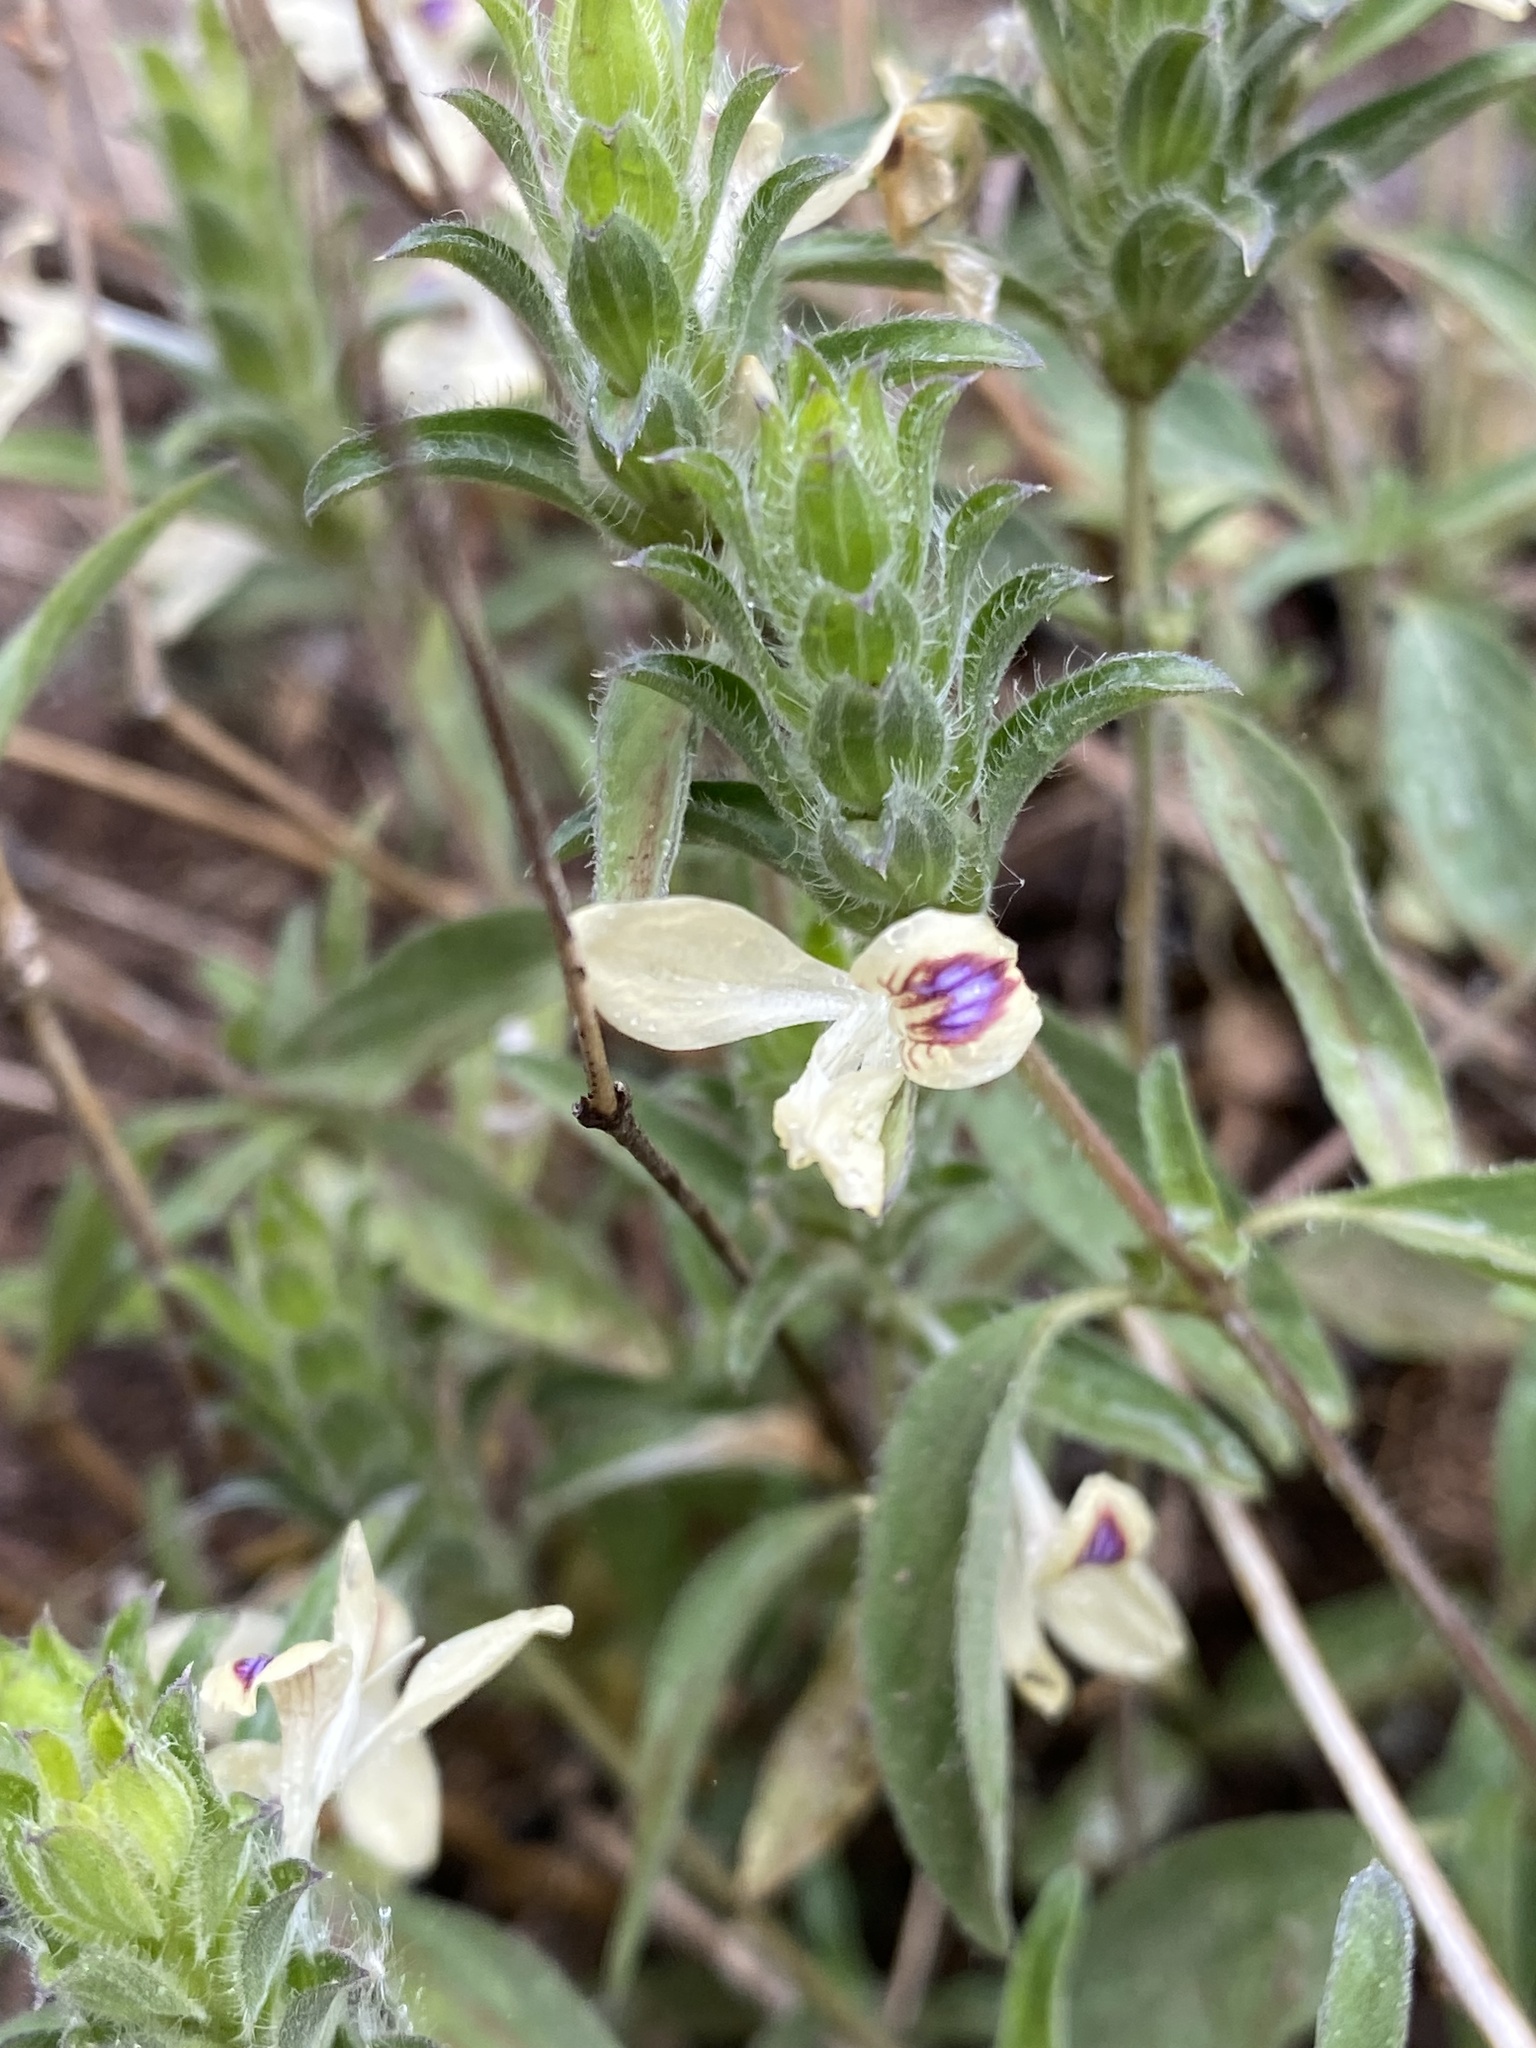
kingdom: Plantae
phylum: Tracheophyta
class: Magnoliopsida
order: Lamiales
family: Acanthaceae
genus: Tetramerium
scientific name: Tetramerium nervosum
